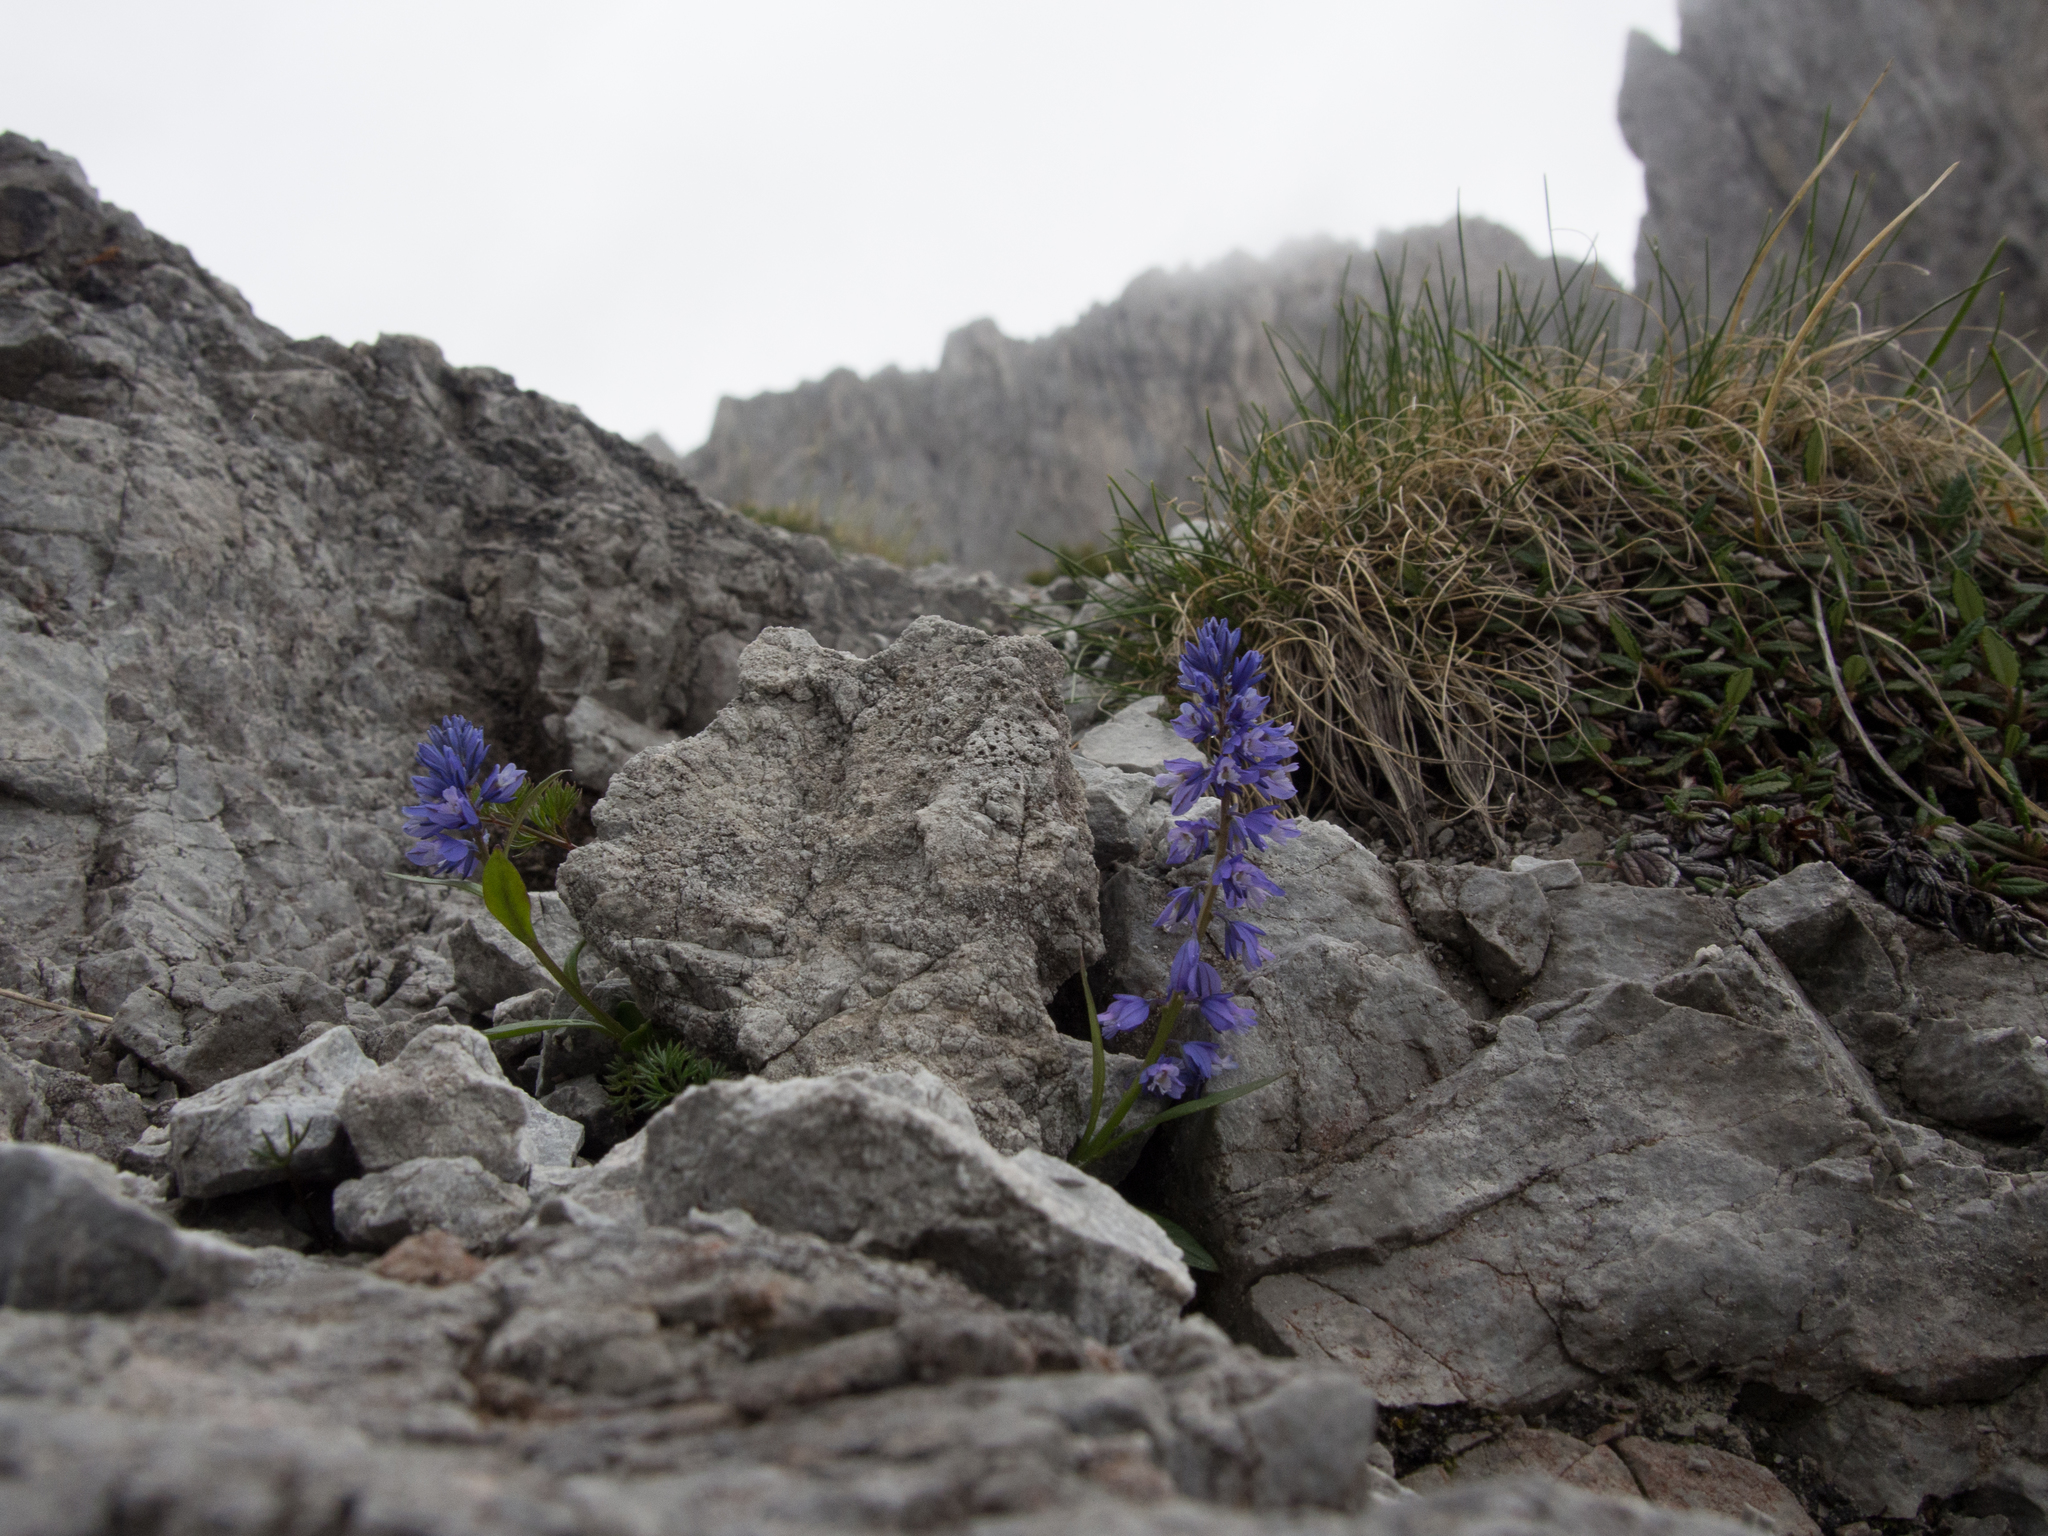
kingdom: Plantae
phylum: Tracheophyta
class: Magnoliopsida
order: Fabales
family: Polygalaceae
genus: Polygala
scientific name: Polygala alpestris
